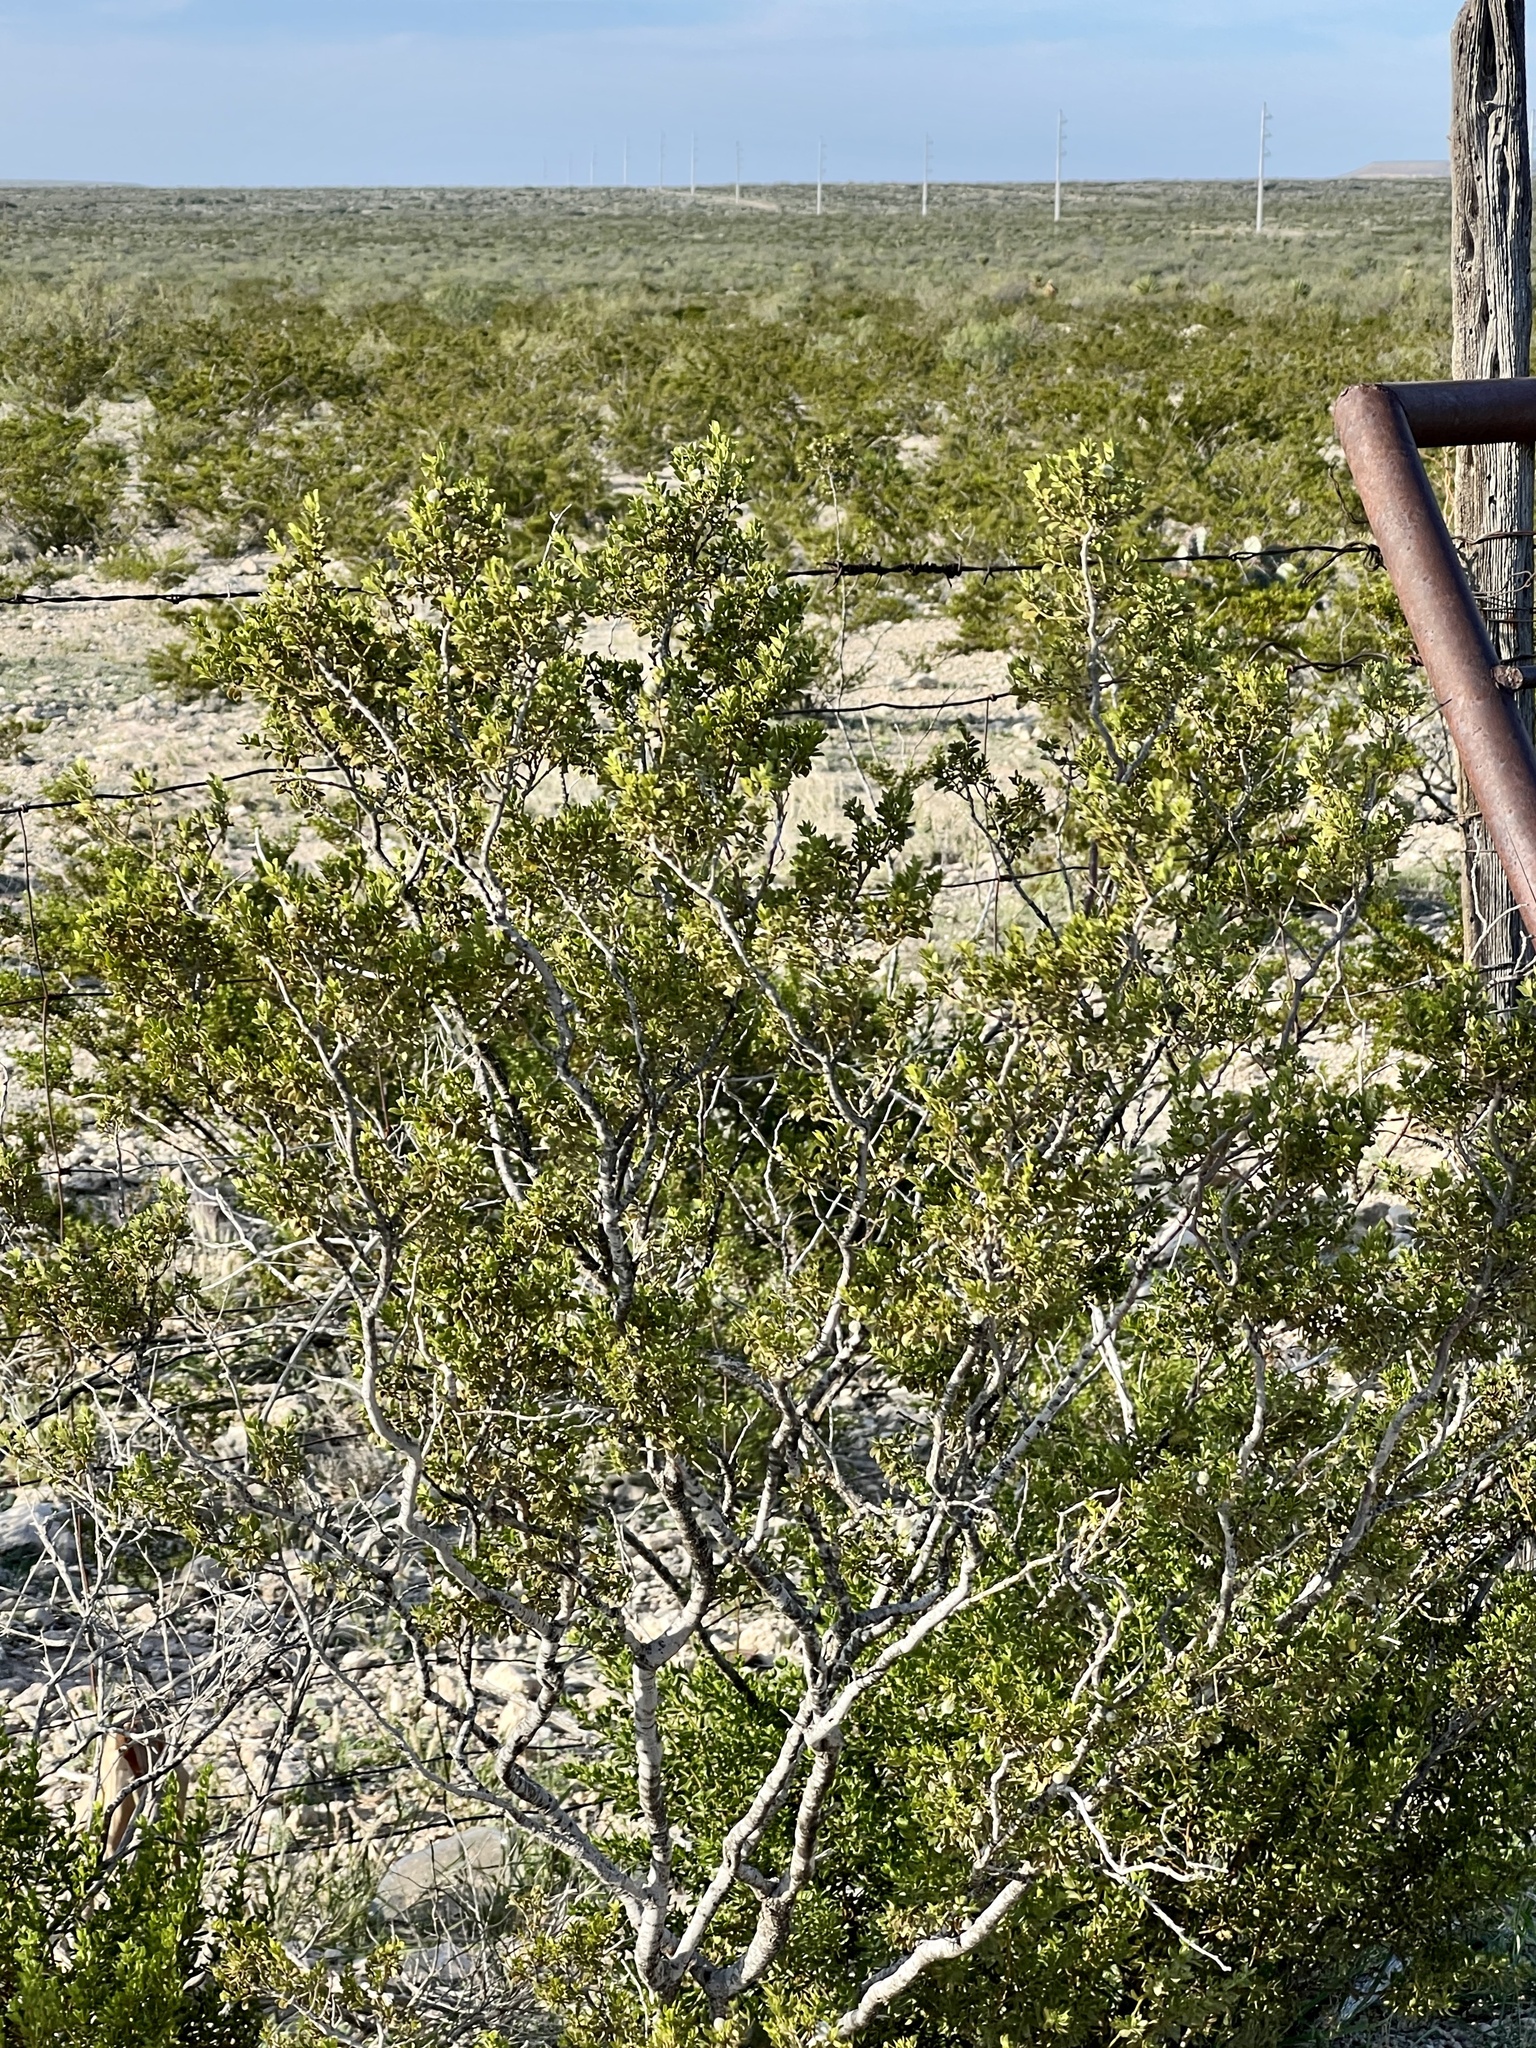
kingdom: Plantae
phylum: Tracheophyta
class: Magnoliopsida
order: Zygophyllales
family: Zygophyllaceae
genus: Larrea
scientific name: Larrea tridentata
